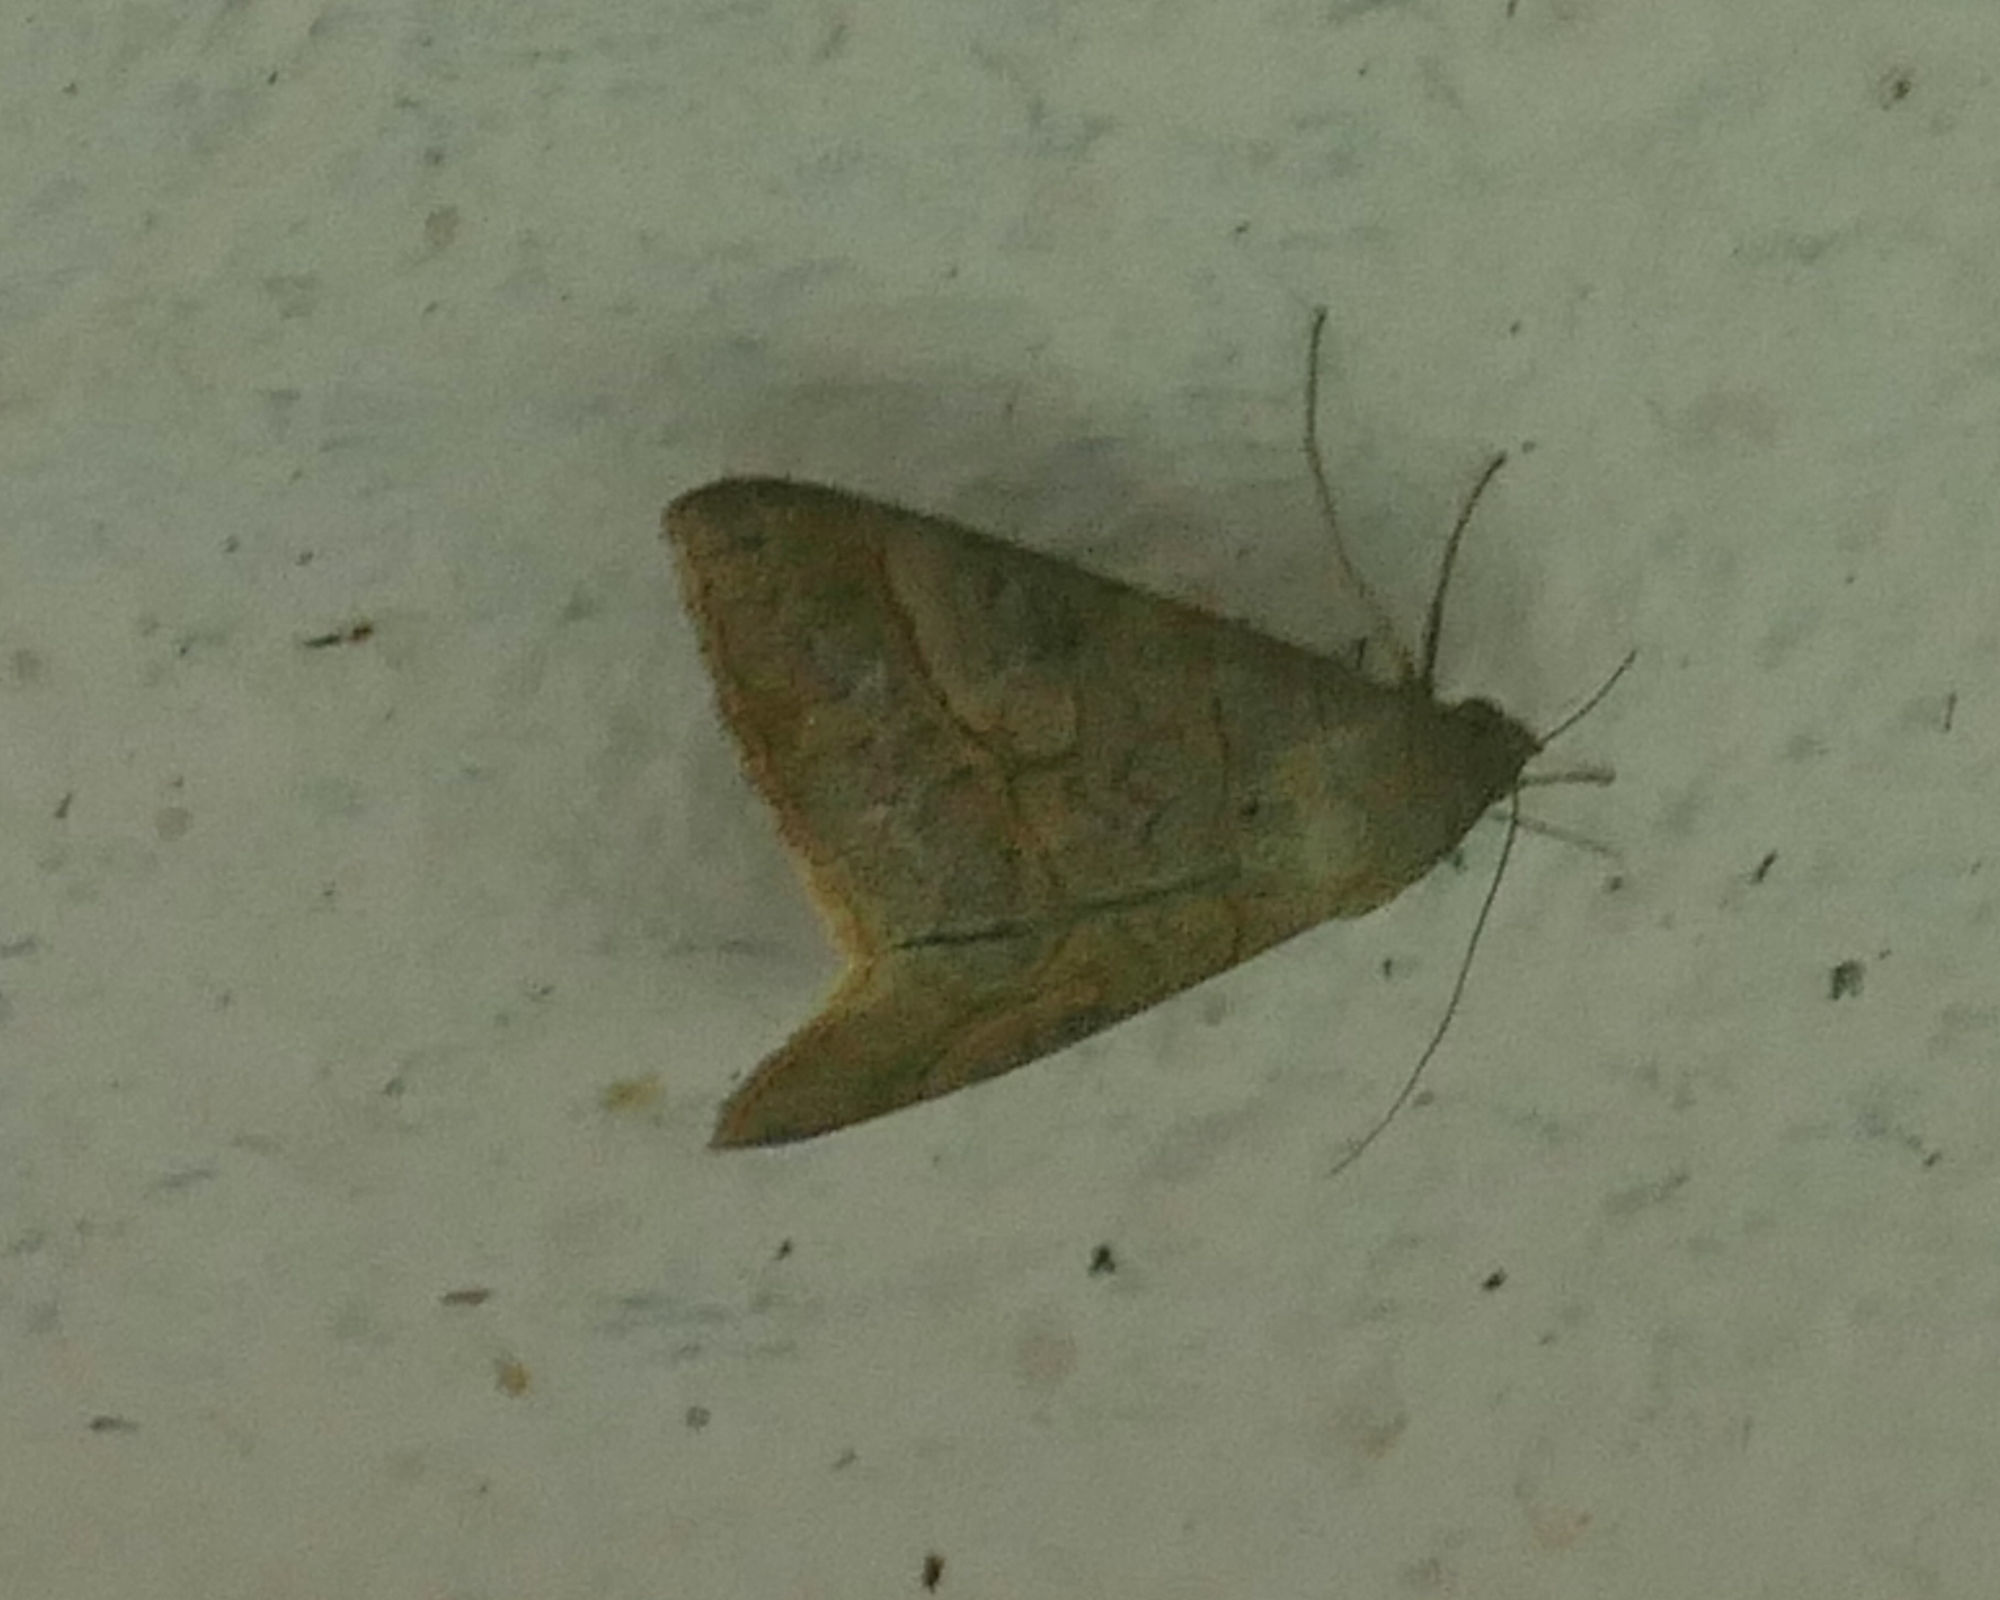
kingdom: Animalia
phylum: Arthropoda
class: Insecta
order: Lepidoptera
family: Erebidae
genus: Mocis
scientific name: Mocis latipes
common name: Striped grass looper
